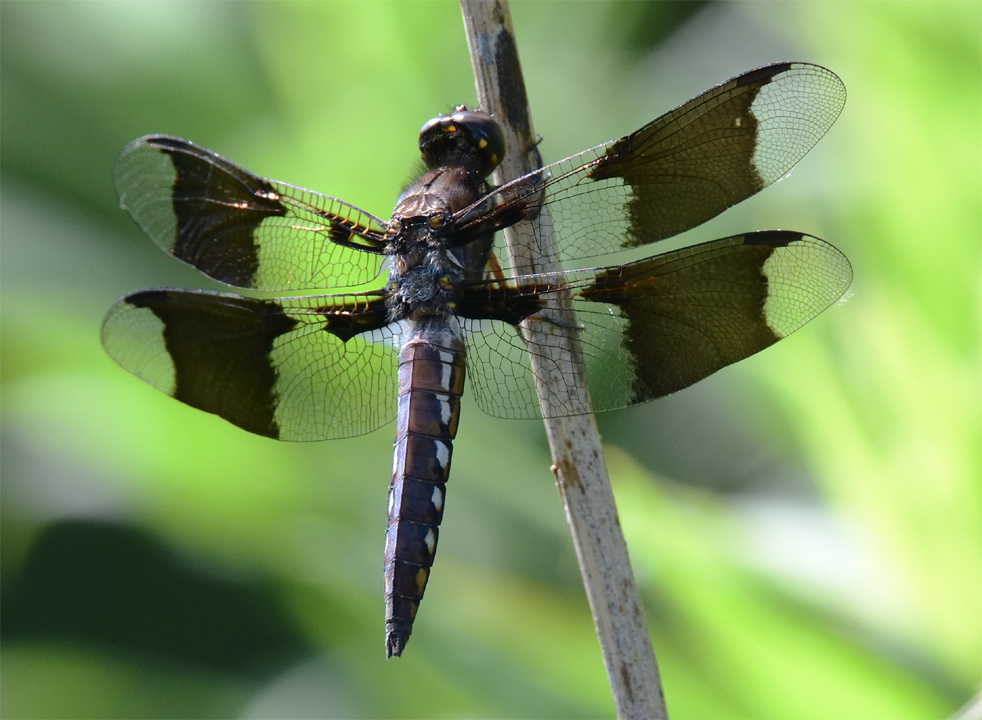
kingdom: Animalia
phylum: Arthropoda
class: Insecta
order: Odonata
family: Libellulidae
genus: Plathemis
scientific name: Plathemis lydia
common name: Common whitetail
